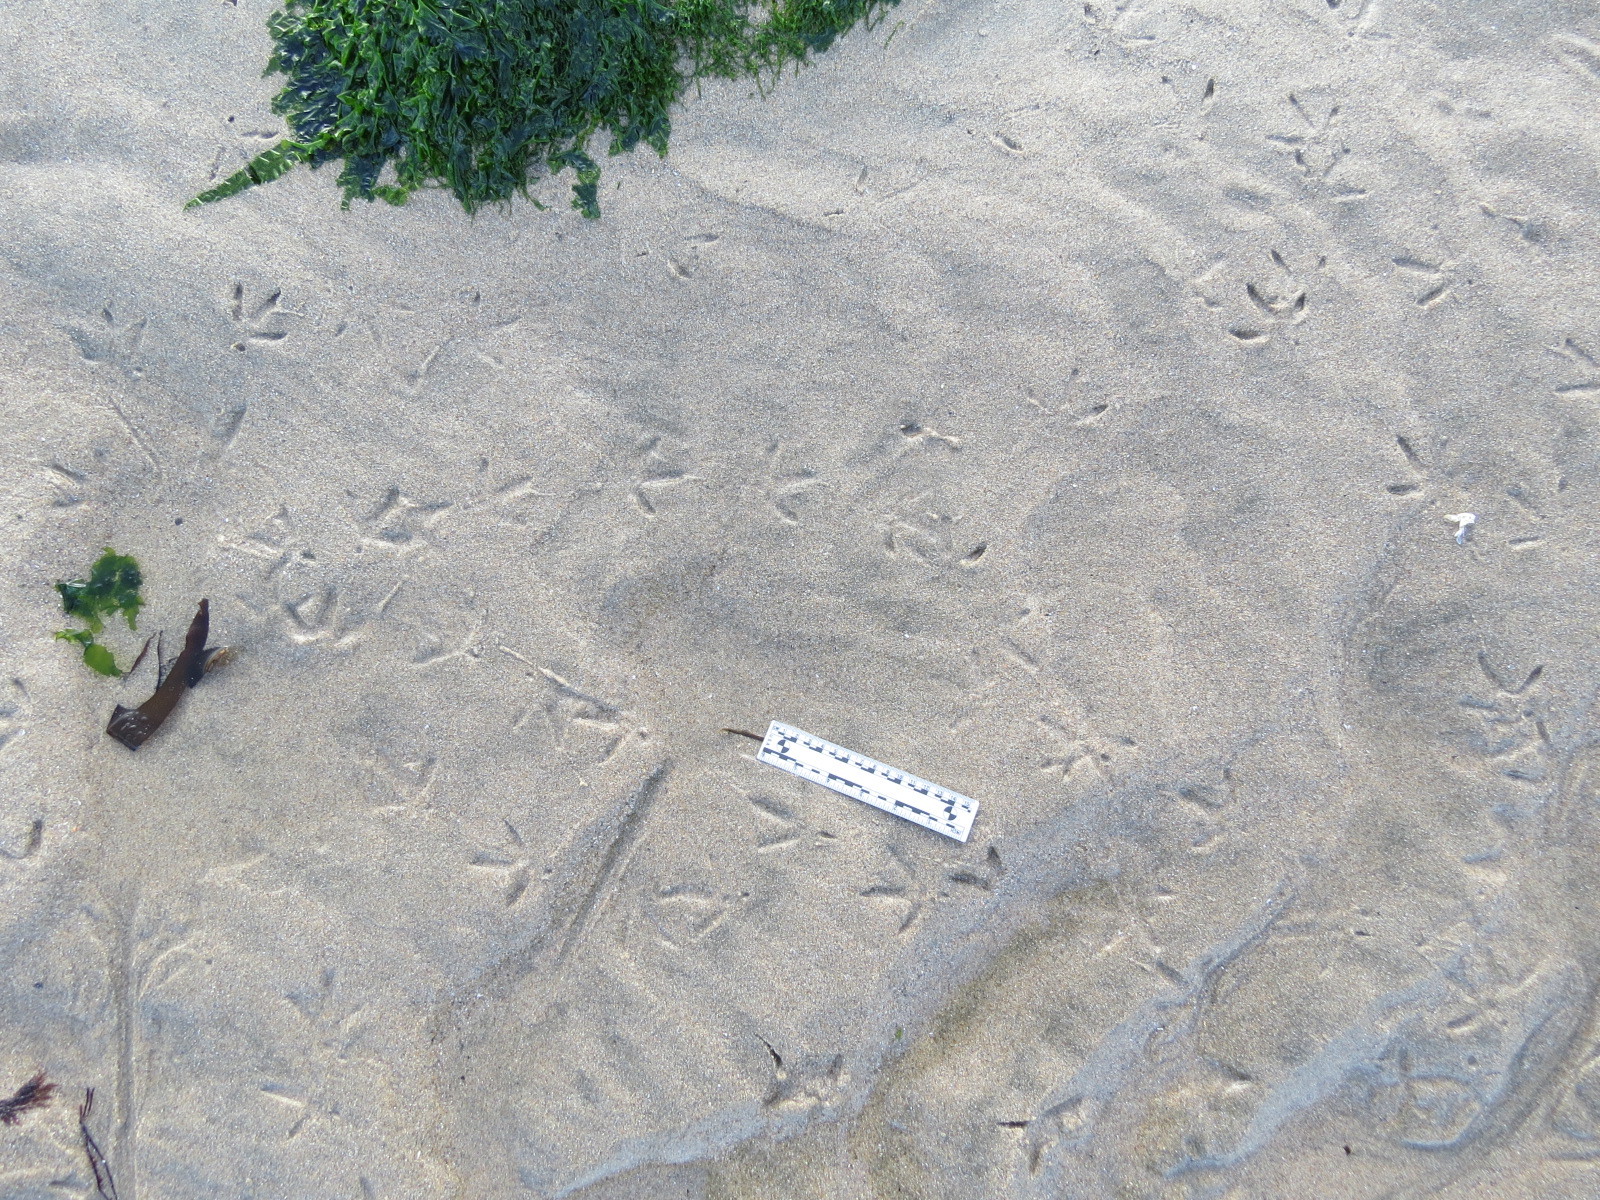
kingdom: Animalia
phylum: Chordata
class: Aves
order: Charadriiformes
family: Scolopacidae
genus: Numenius
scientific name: Numenius phaeopus
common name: Whimbrel
